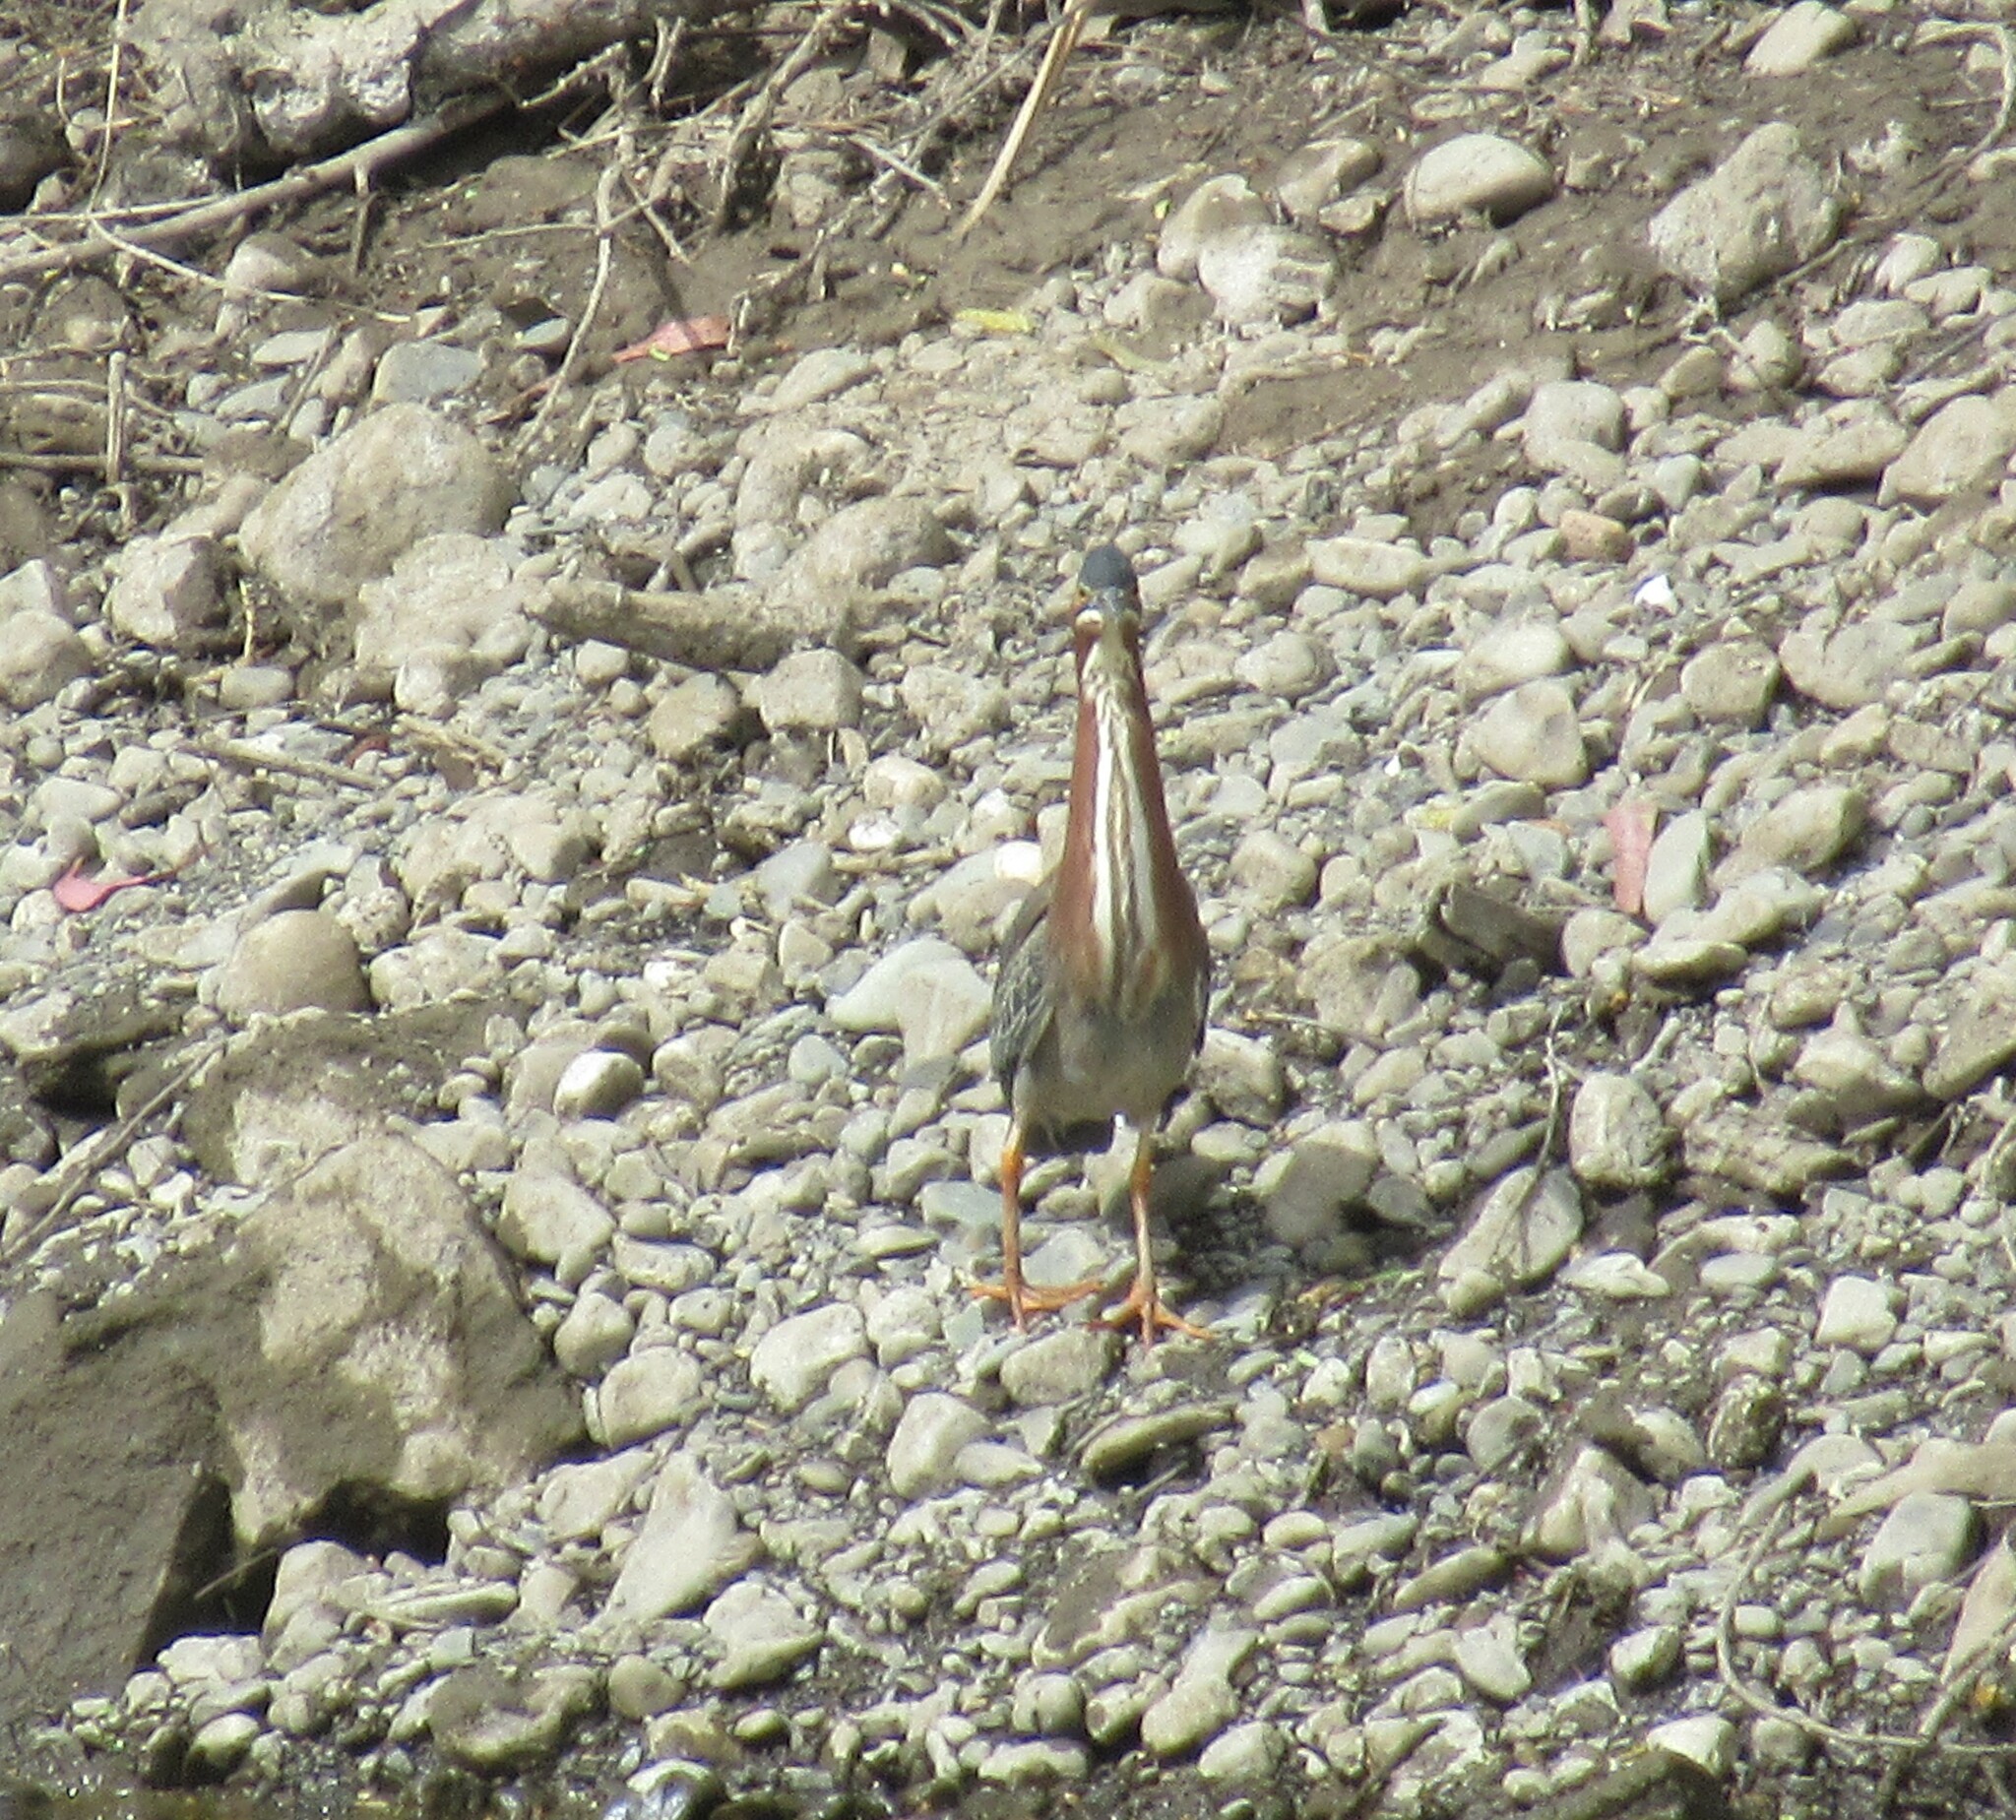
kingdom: Animalia
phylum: Chordata
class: Aves
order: Pelecaniformes
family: Ardeidae
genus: Butorides
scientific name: Butorides virescens
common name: Green heron
